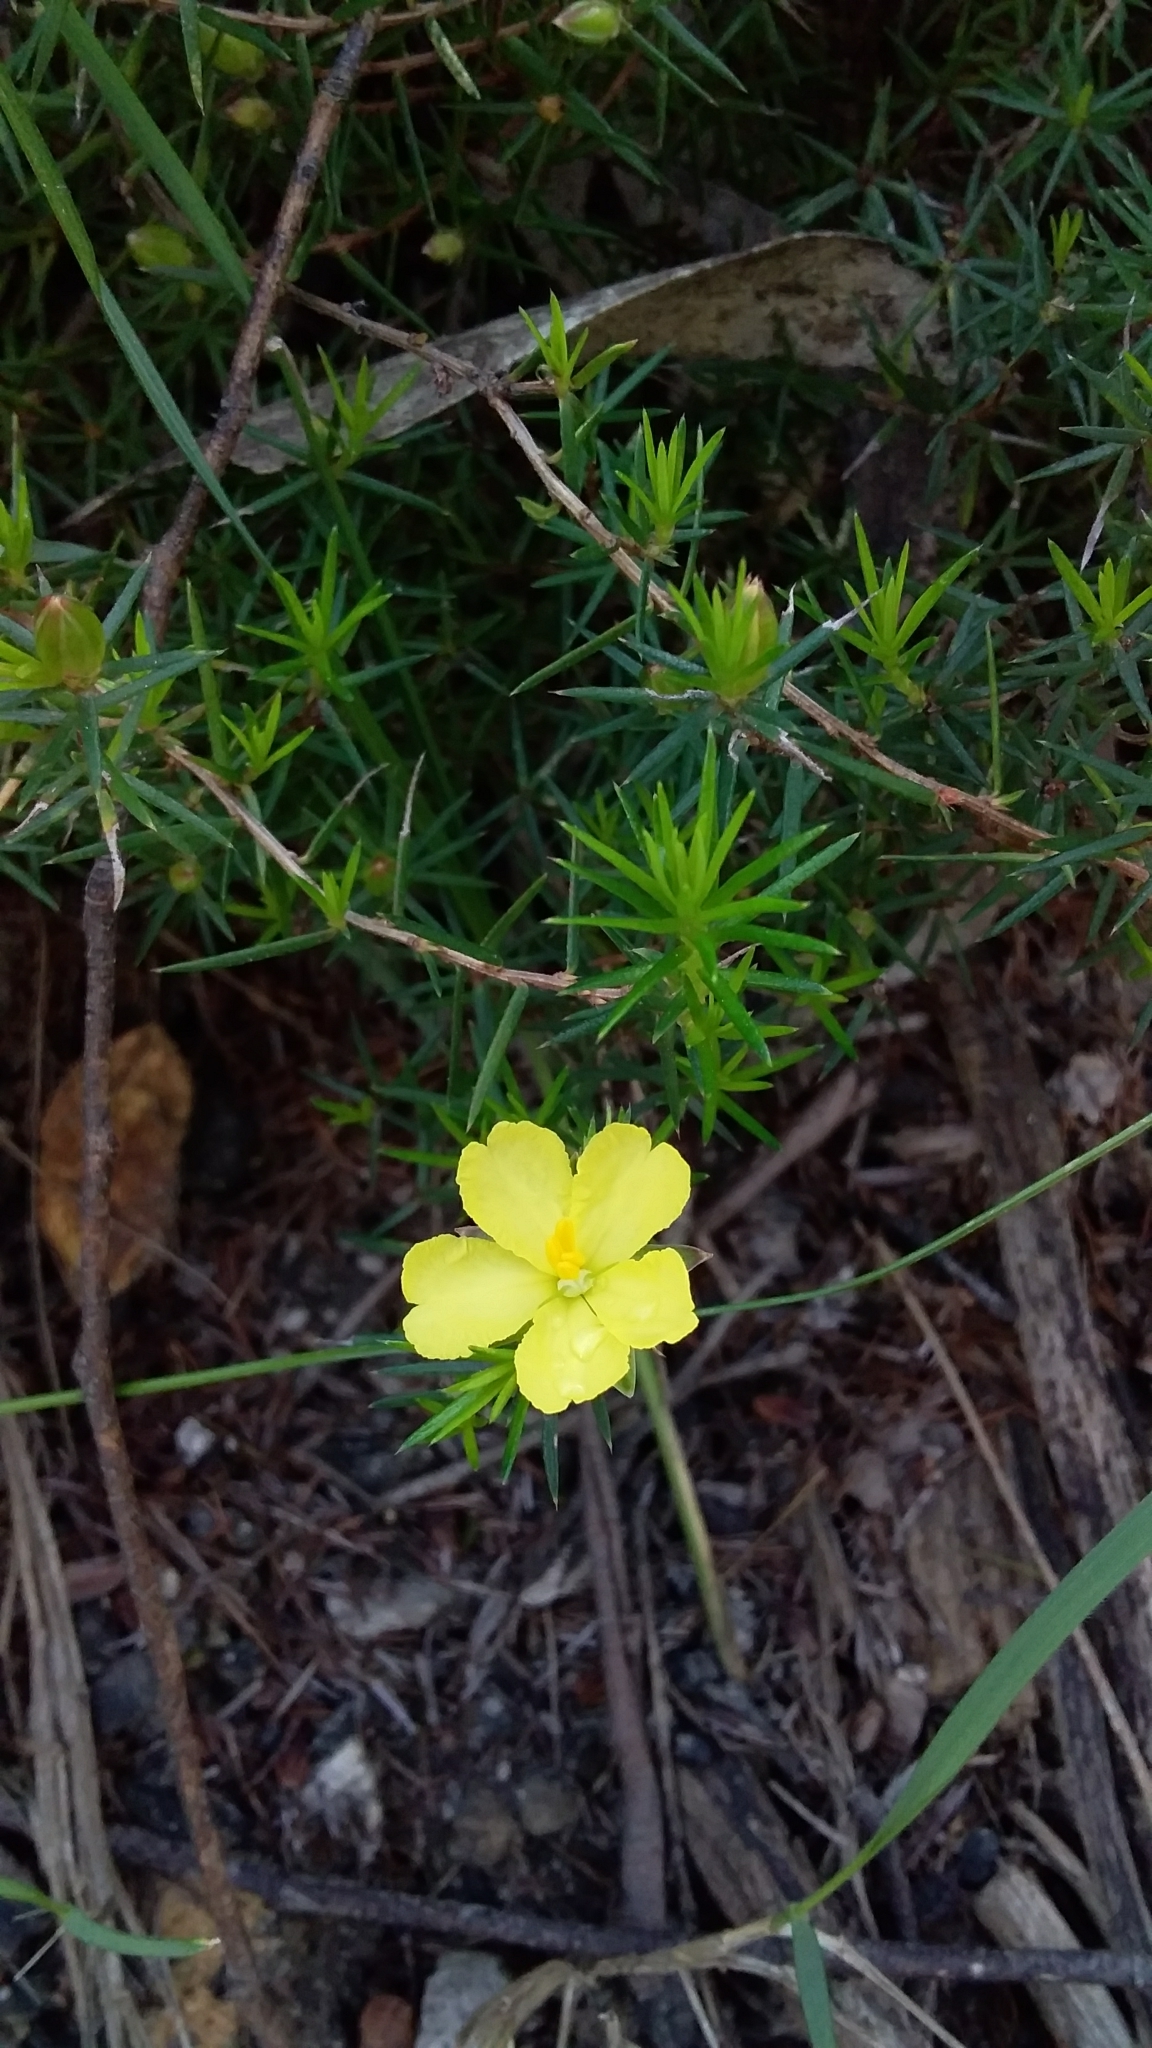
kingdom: Plantae
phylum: Tracheophyta
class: Magnoliopsida
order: Dilleniales
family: Dilleniaceae
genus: Hibbertia
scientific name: Hibbertia exutiacies
